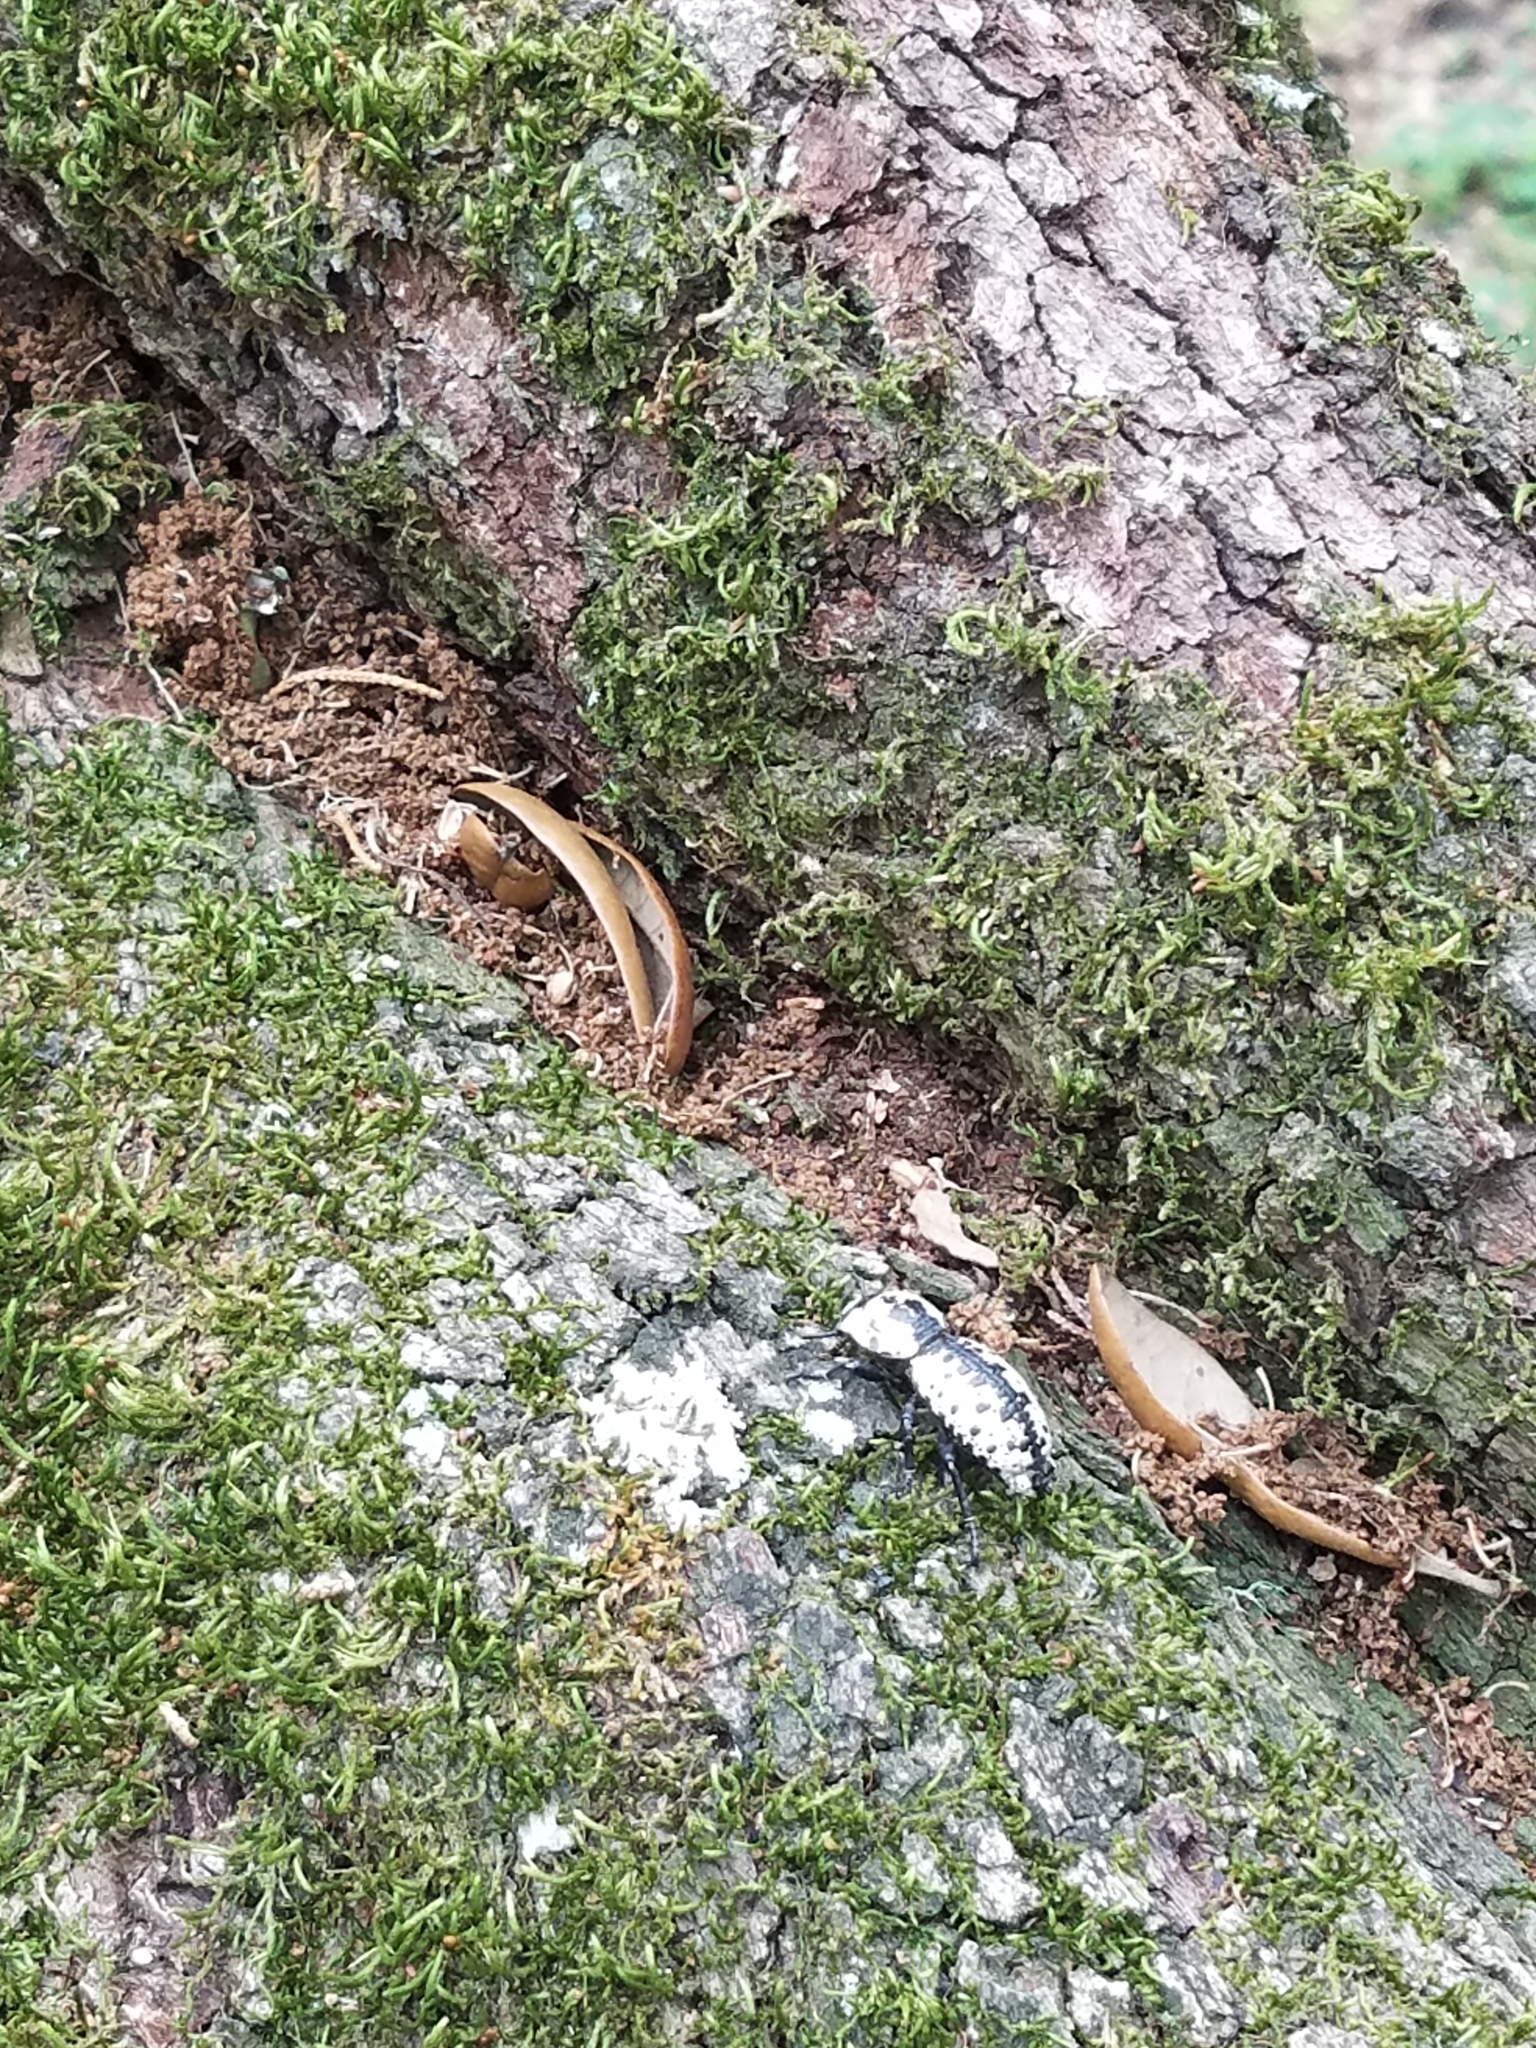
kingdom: Animalia
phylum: Arthropoda
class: Insecta
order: Coleoptera
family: Zopheridae
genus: Zopherus
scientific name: Zopherus nodulosus
